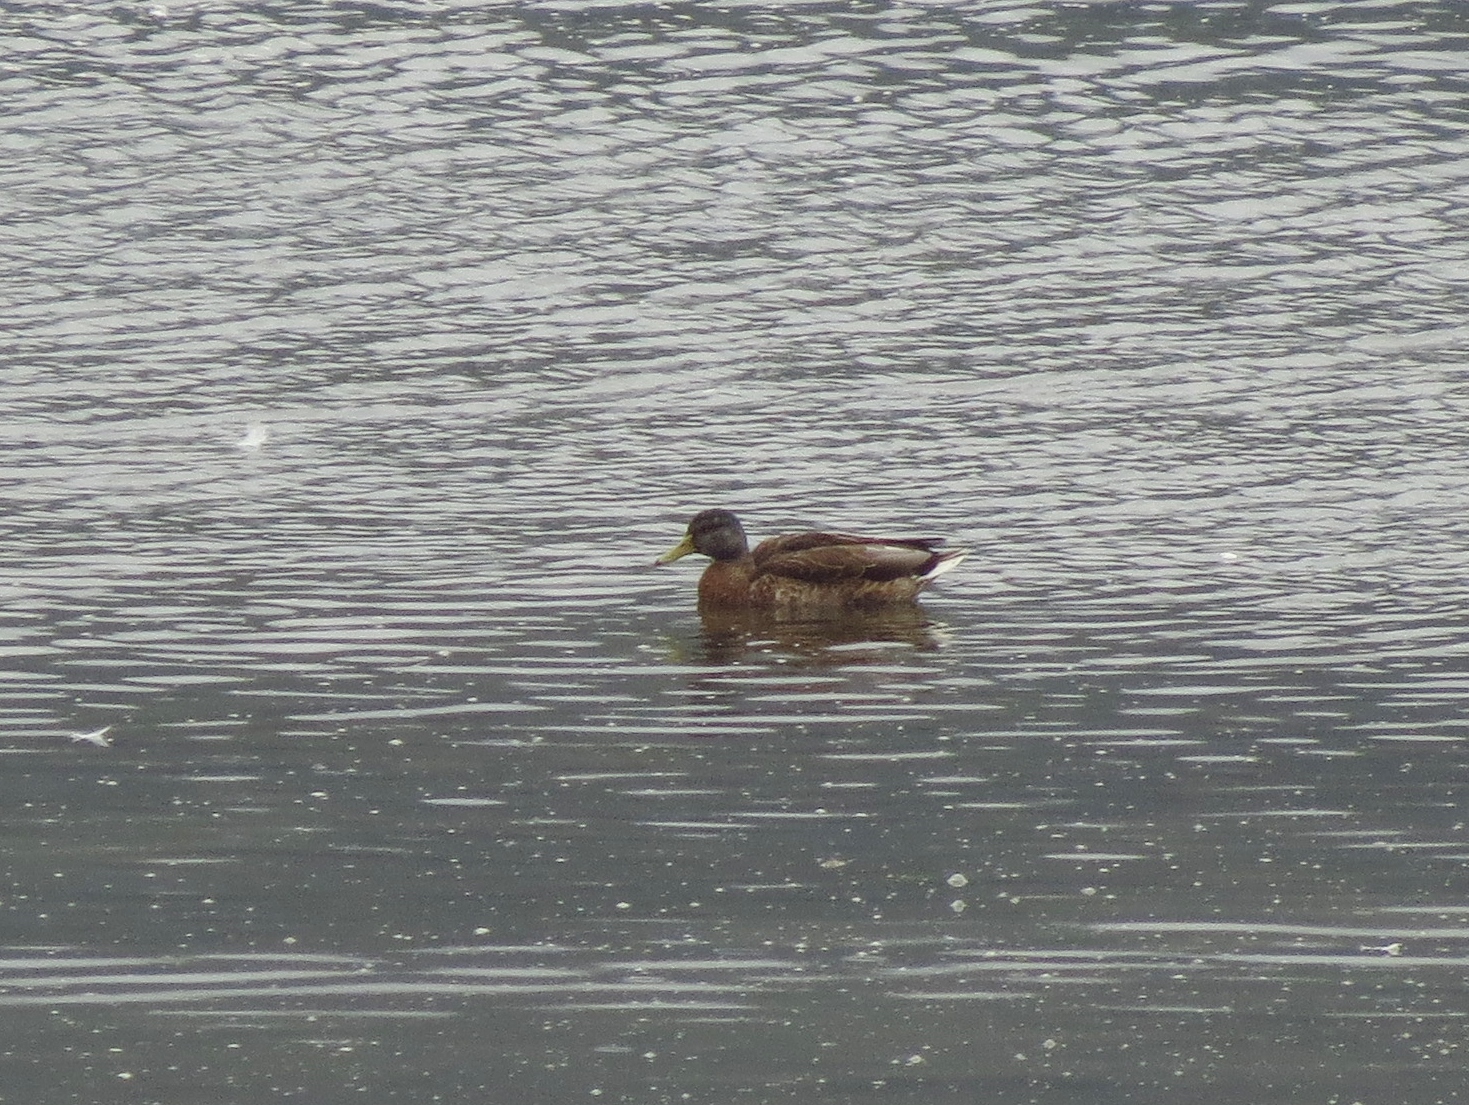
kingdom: Animalia
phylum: Chordata
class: Aves
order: Anseriformes
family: Anatidae
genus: Anas
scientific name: Anas platyrhynchos
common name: Mallard
